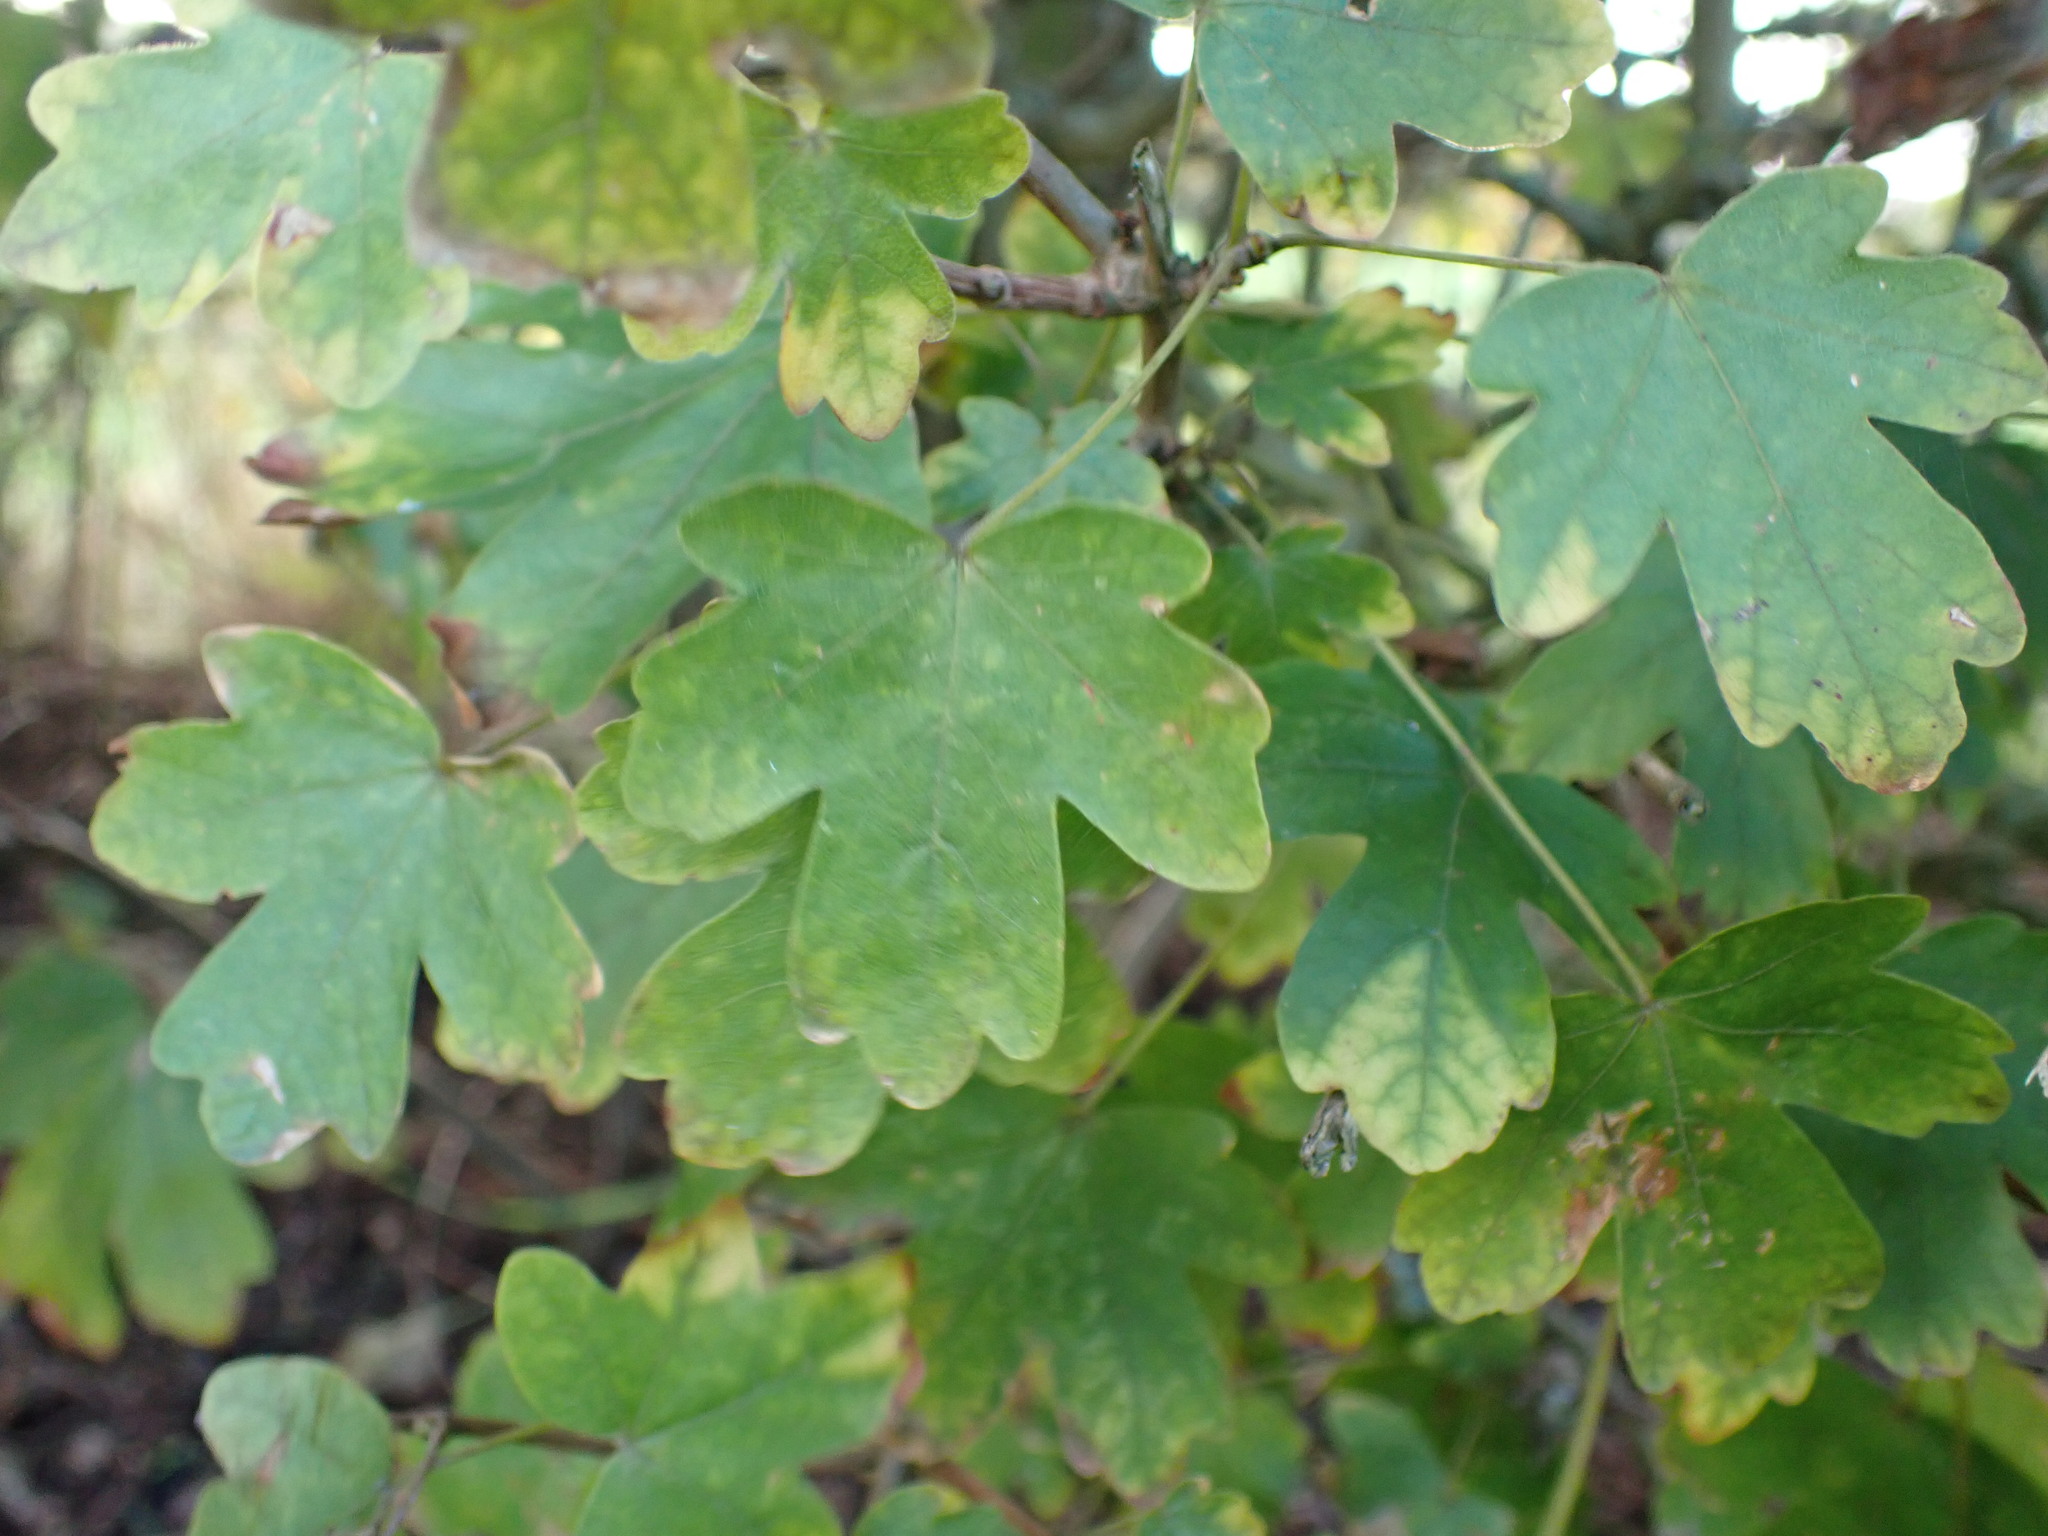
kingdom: Plantae
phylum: Tracheophyta
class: Magnoliopsida
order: Sapindales
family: Sapindaceae
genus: Acer
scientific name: Acer campestre
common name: Field maple
